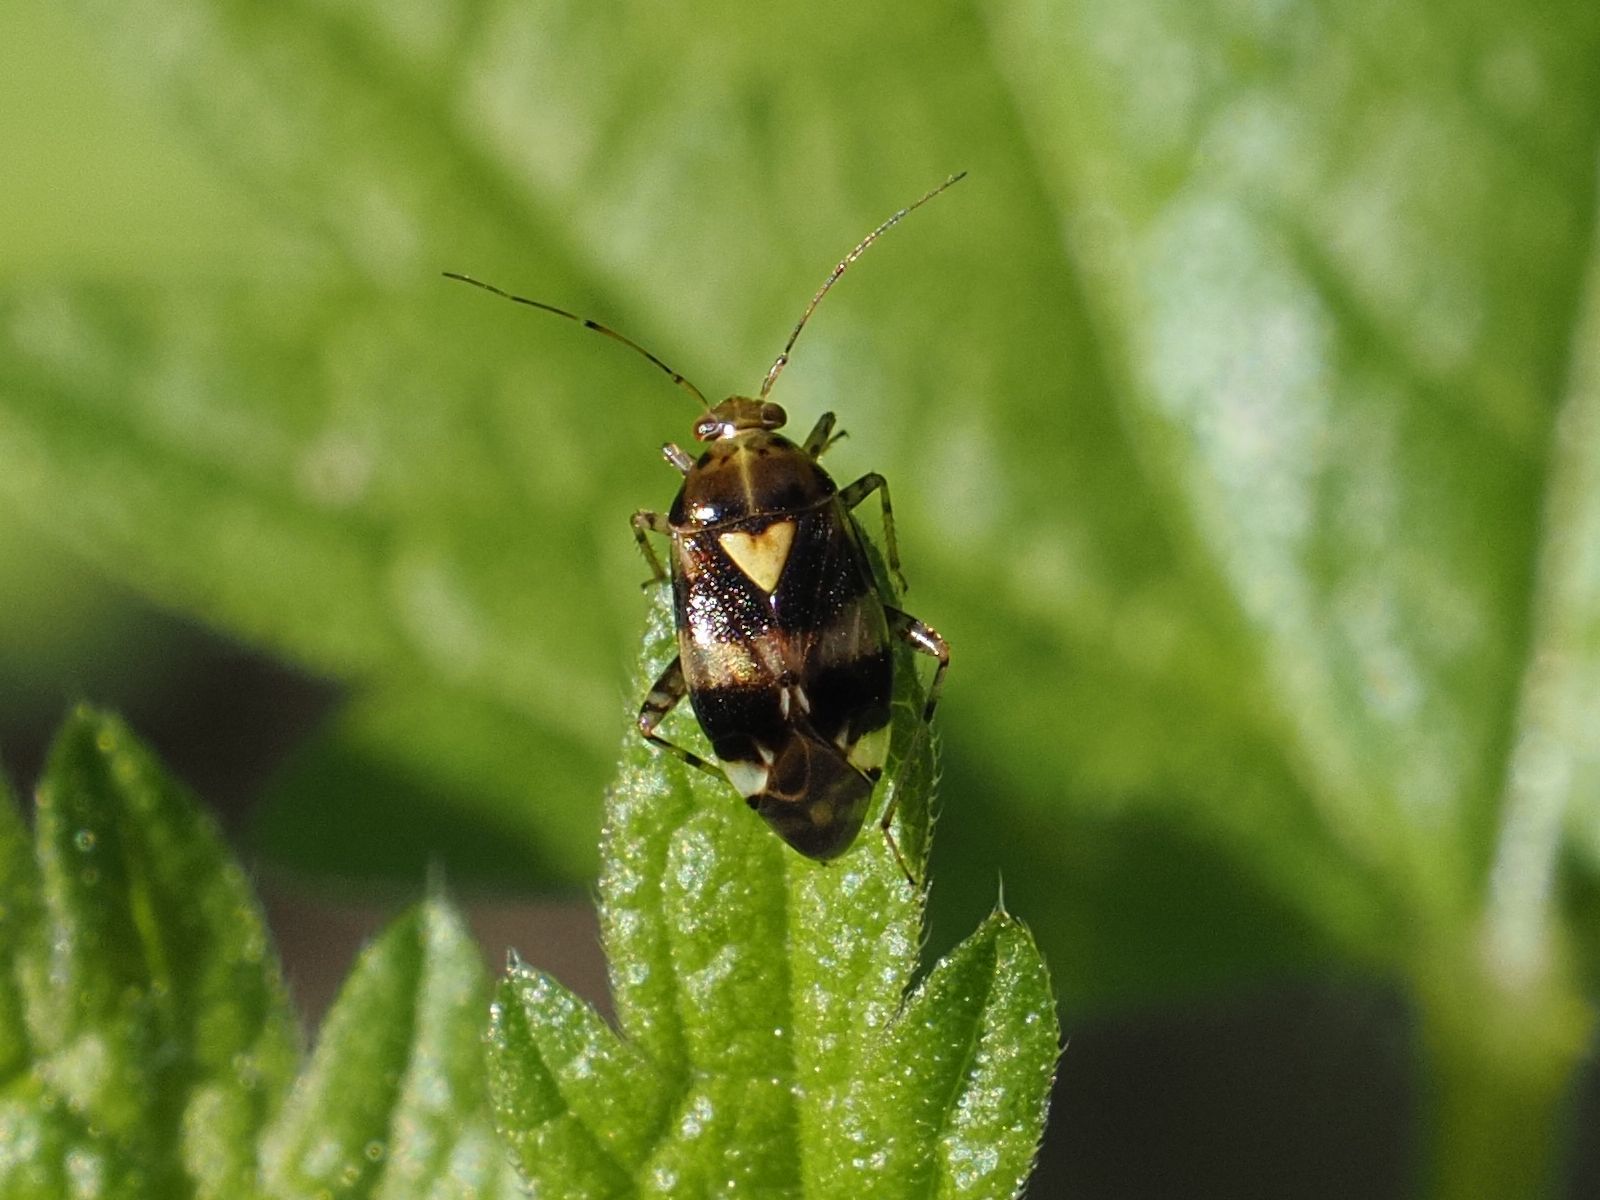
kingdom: Animalia
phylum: Arthropoda
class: Insecta
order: Hemiptera
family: Miridae
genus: Liocoris
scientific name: Liocoris tripustulatus
